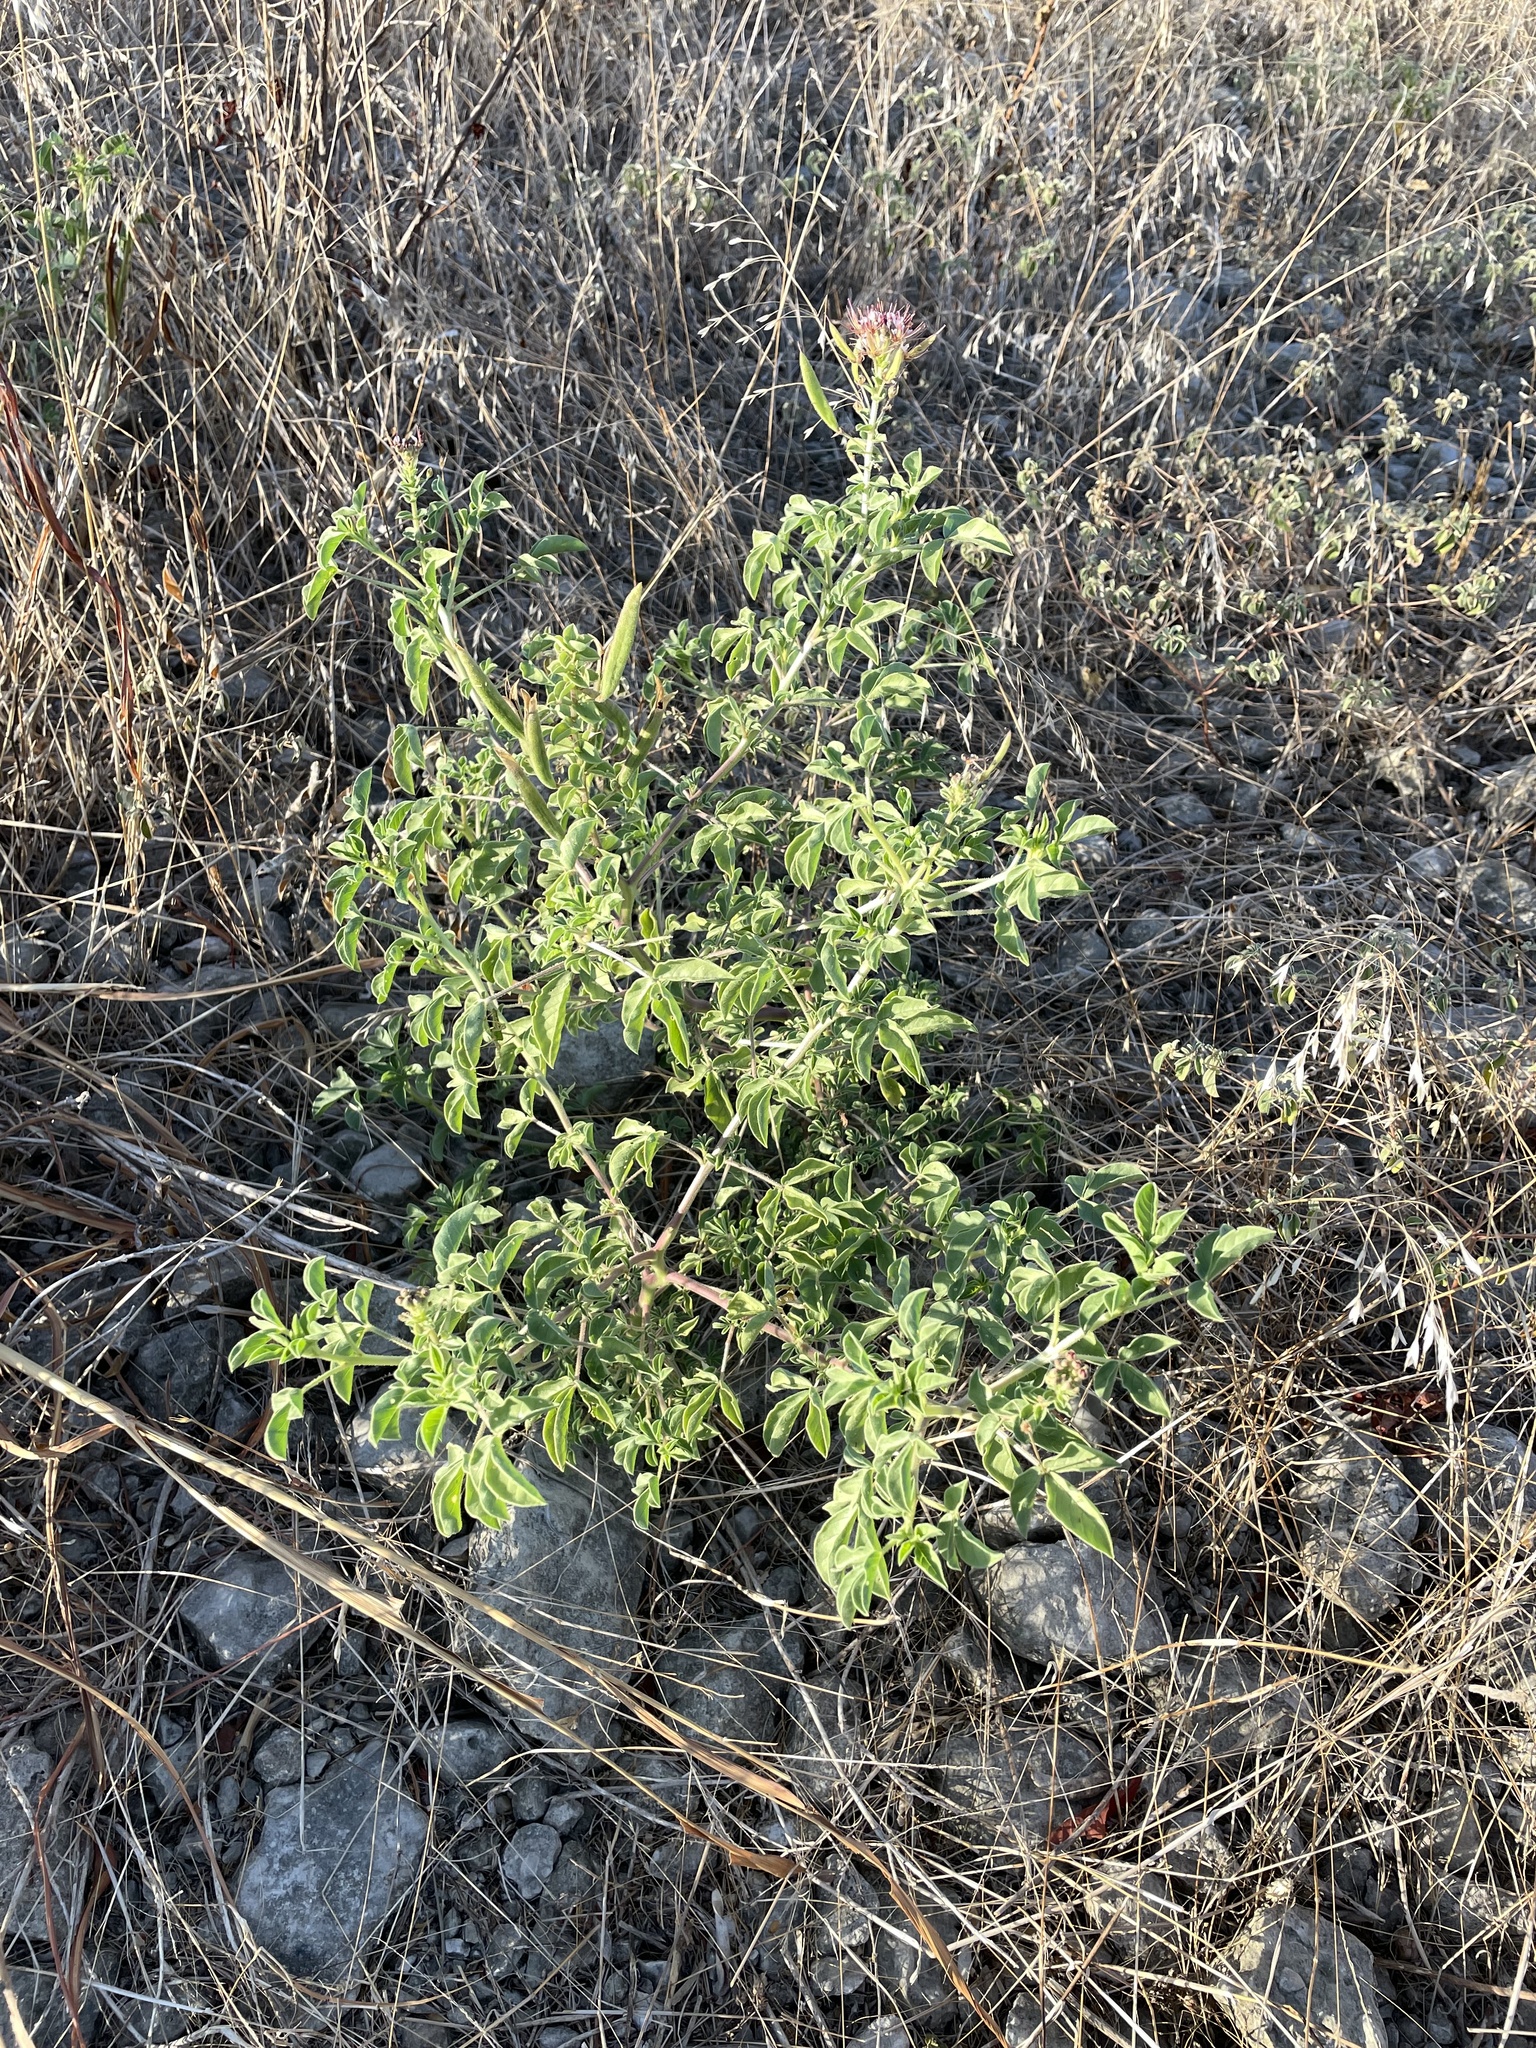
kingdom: Plantae
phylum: Tracheophyta
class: Magnoliopsida
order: Brassicales
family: Cleomaceae
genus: Polanisia
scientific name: Polanisia dodecandra
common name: Clammyweed
